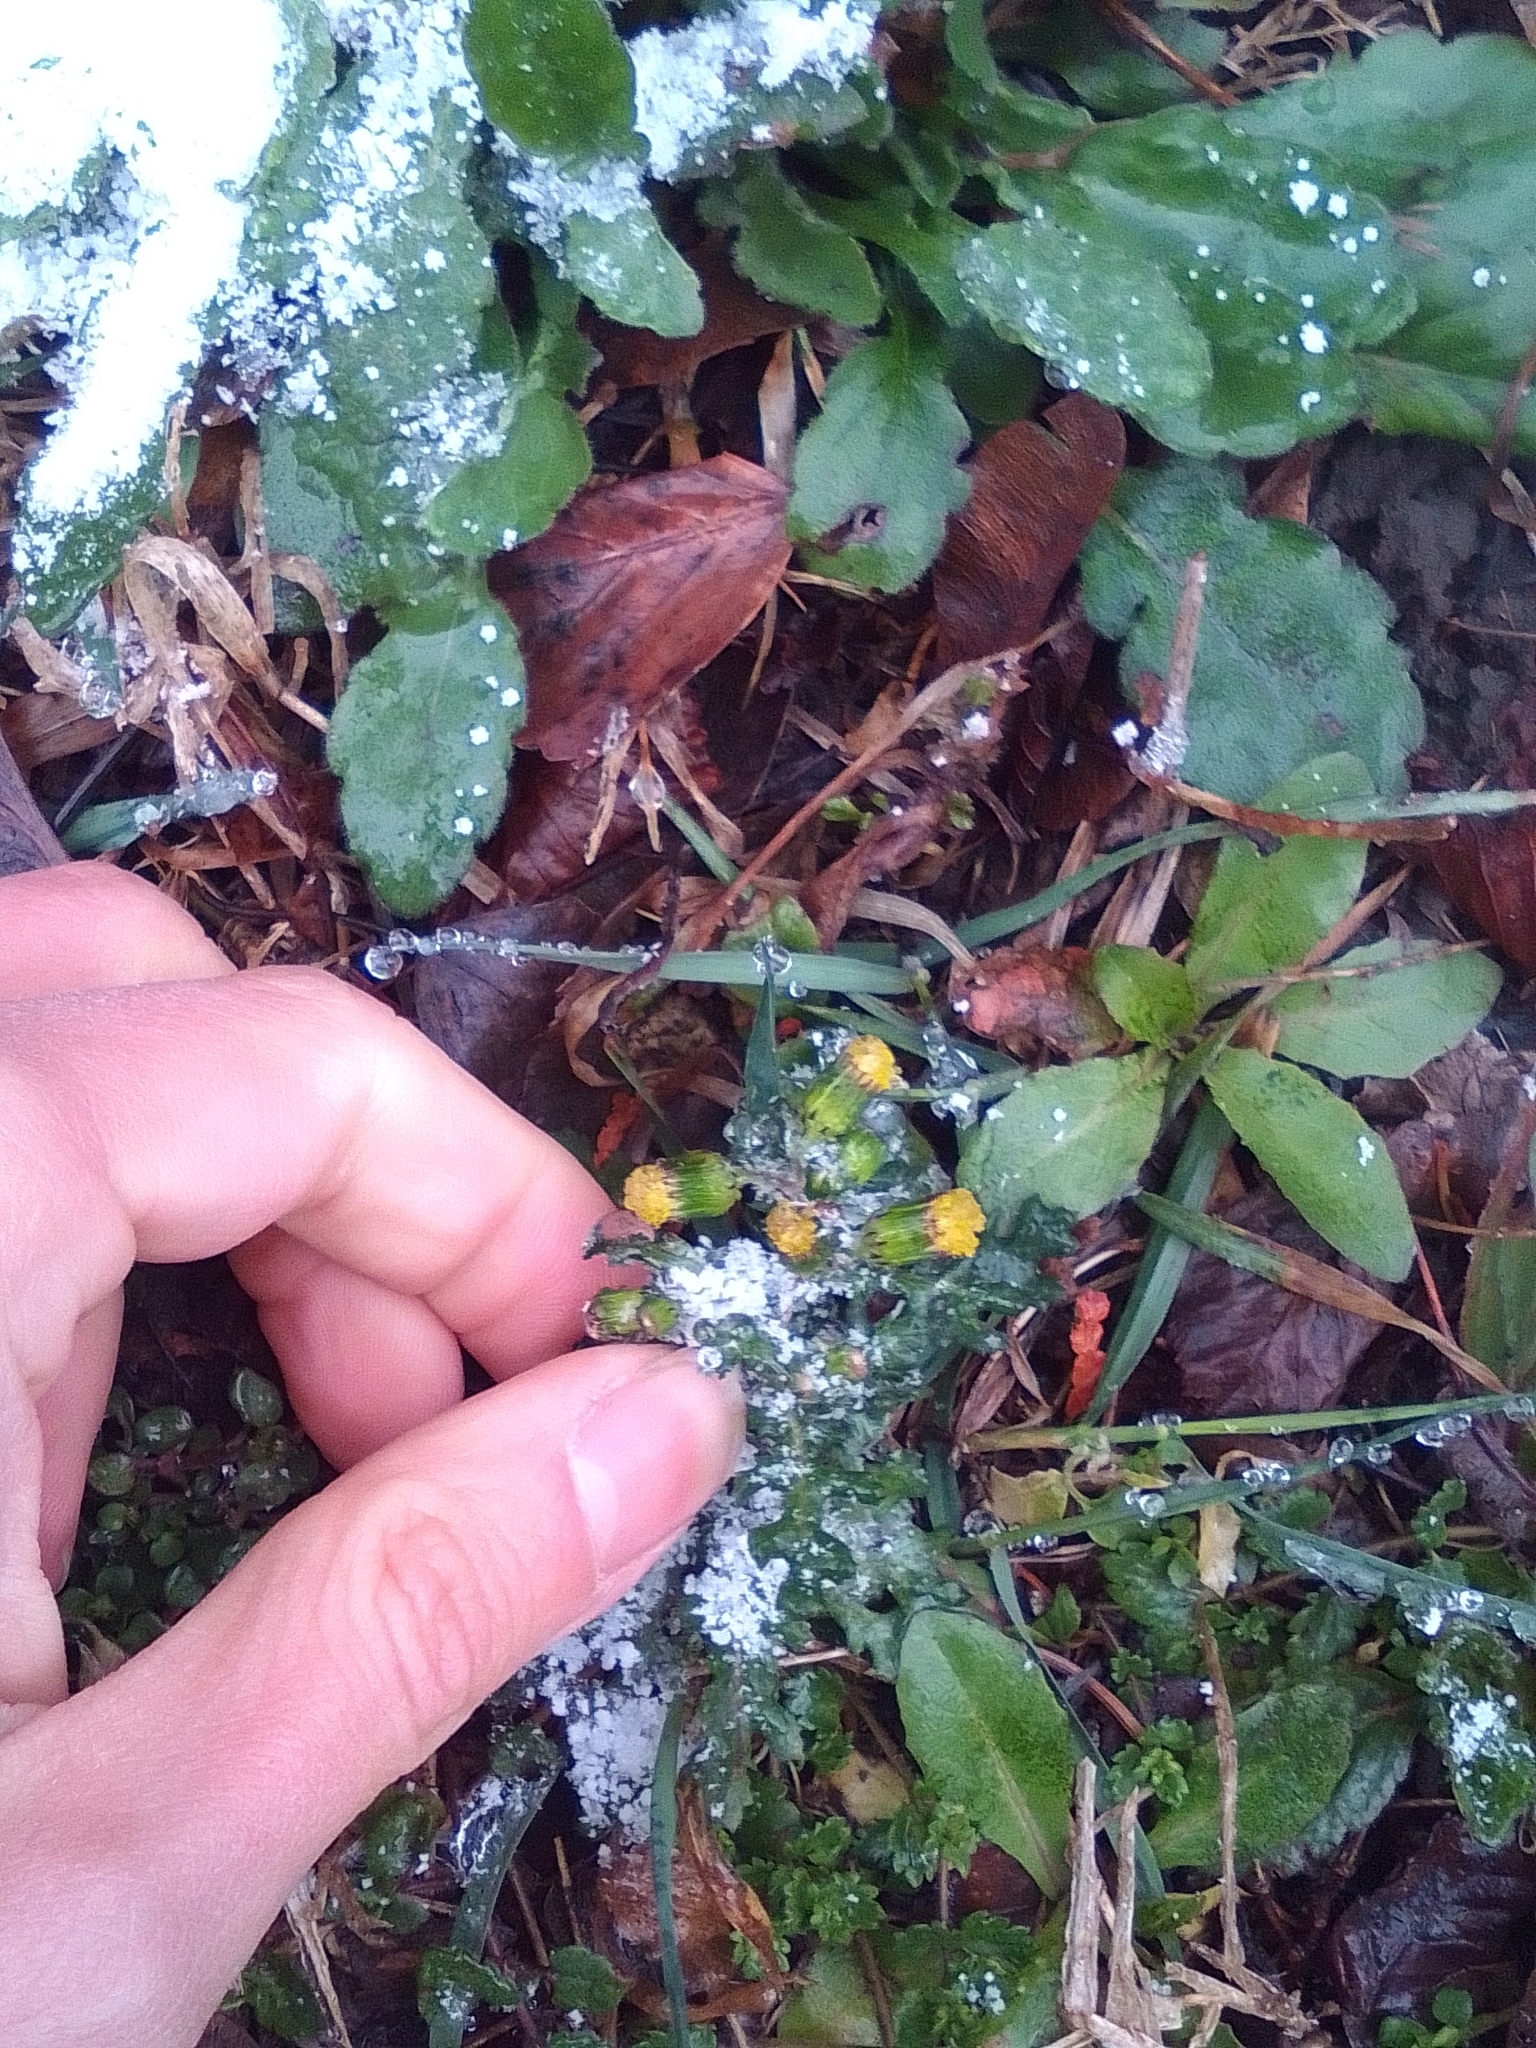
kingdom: Plantae
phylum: Tracheophyta
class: Magnoliopsida
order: Asterales
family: Asteraceae
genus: Senecio
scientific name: Senecio vulgaris
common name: Old-man-in-the-spring
